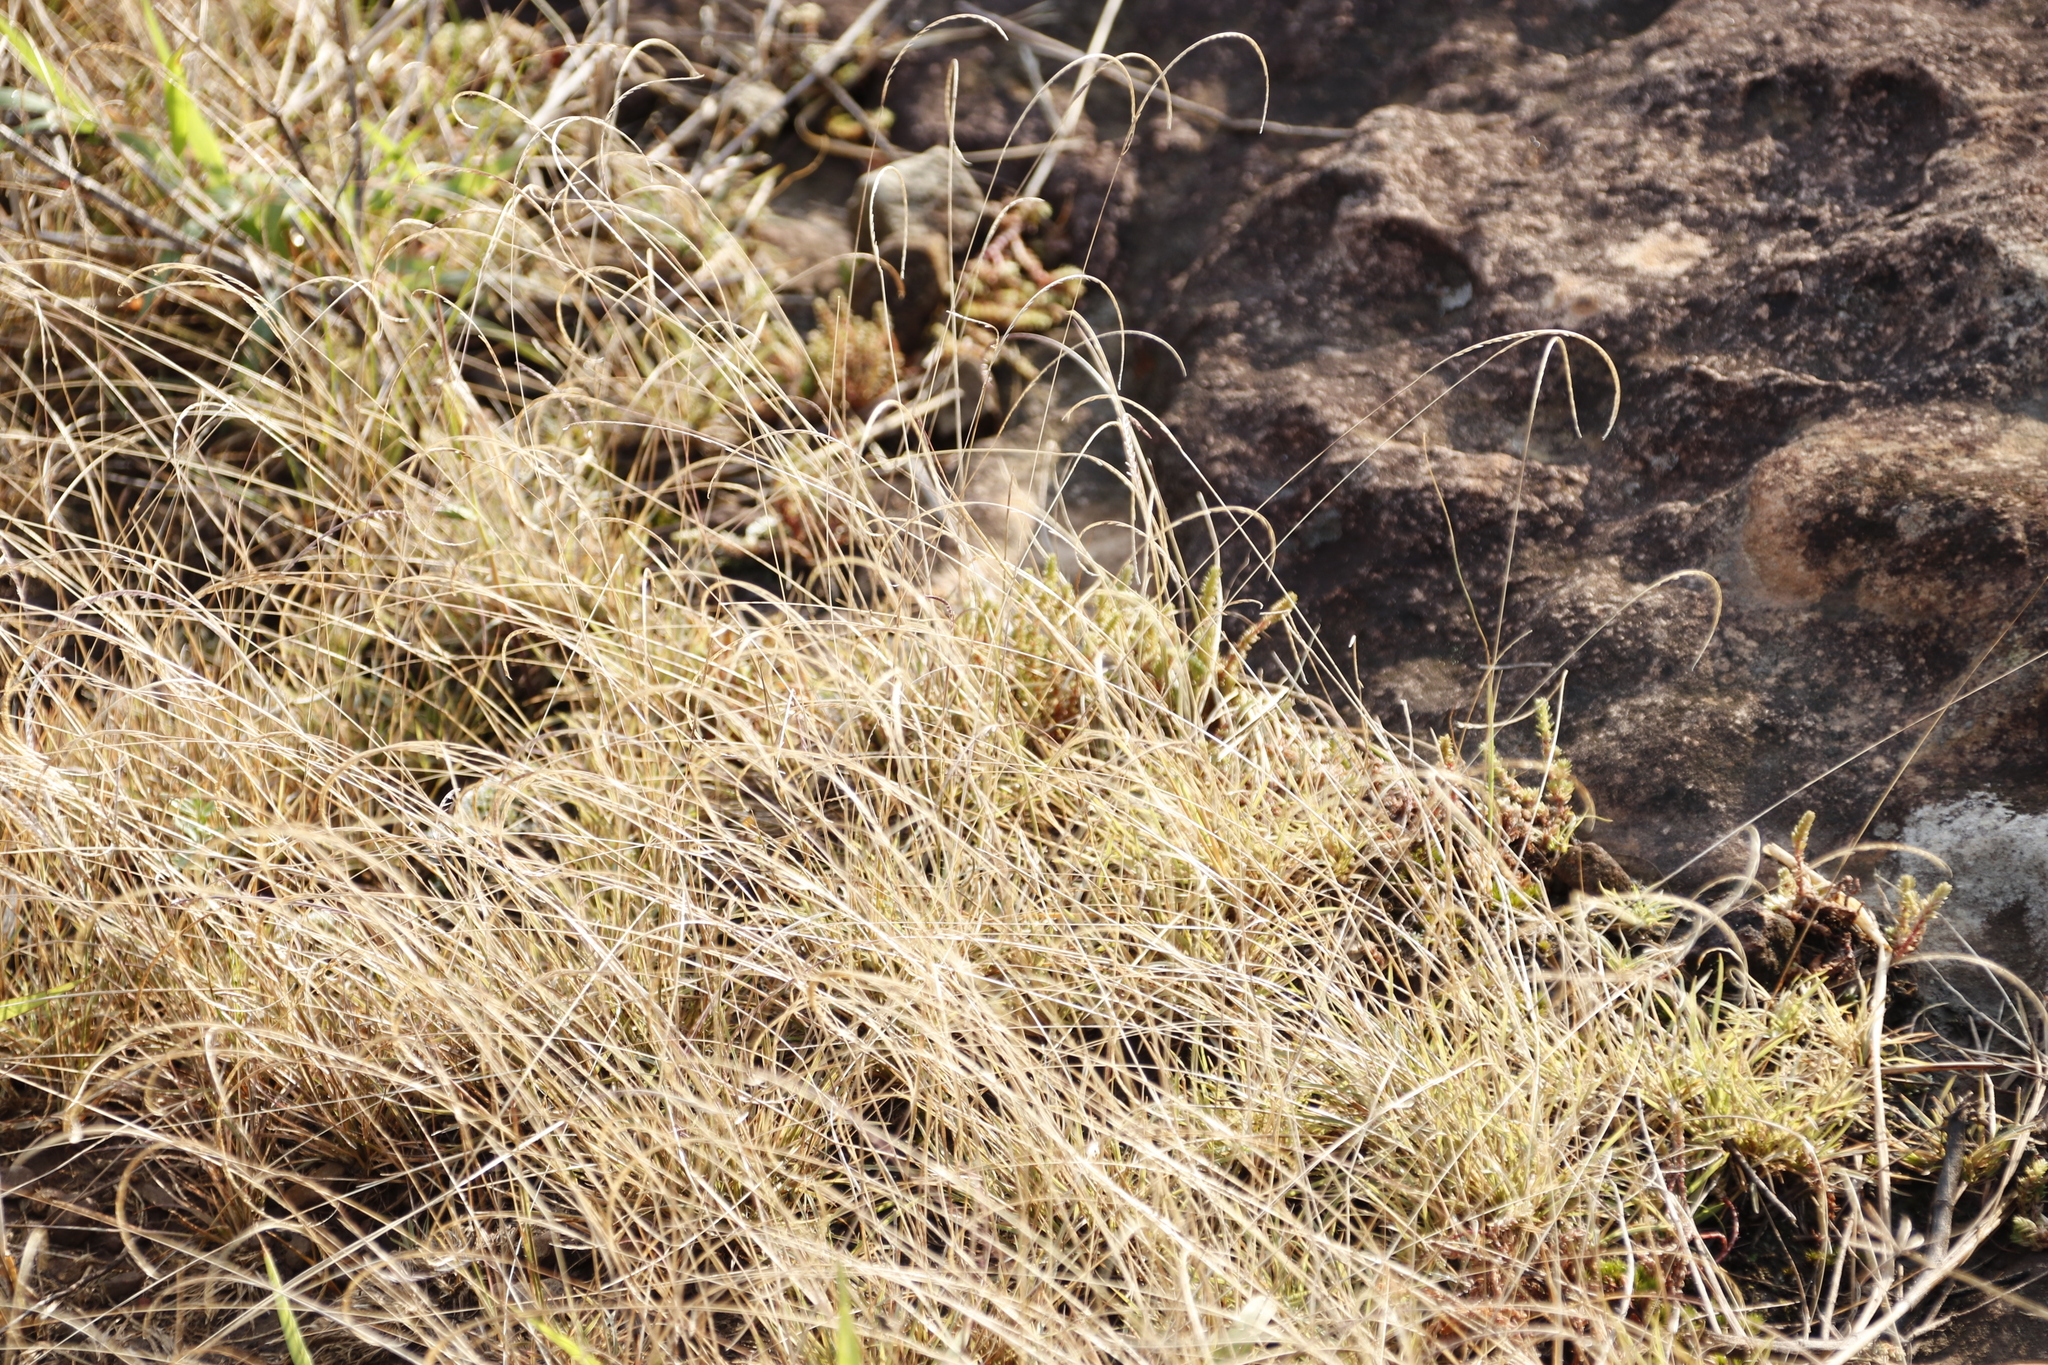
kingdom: Plantae
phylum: Tracheophyta
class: Liliopsida
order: Poales
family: Poaceae
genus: Microchloa
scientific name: Microchloa caffra
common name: Pincushion grass
